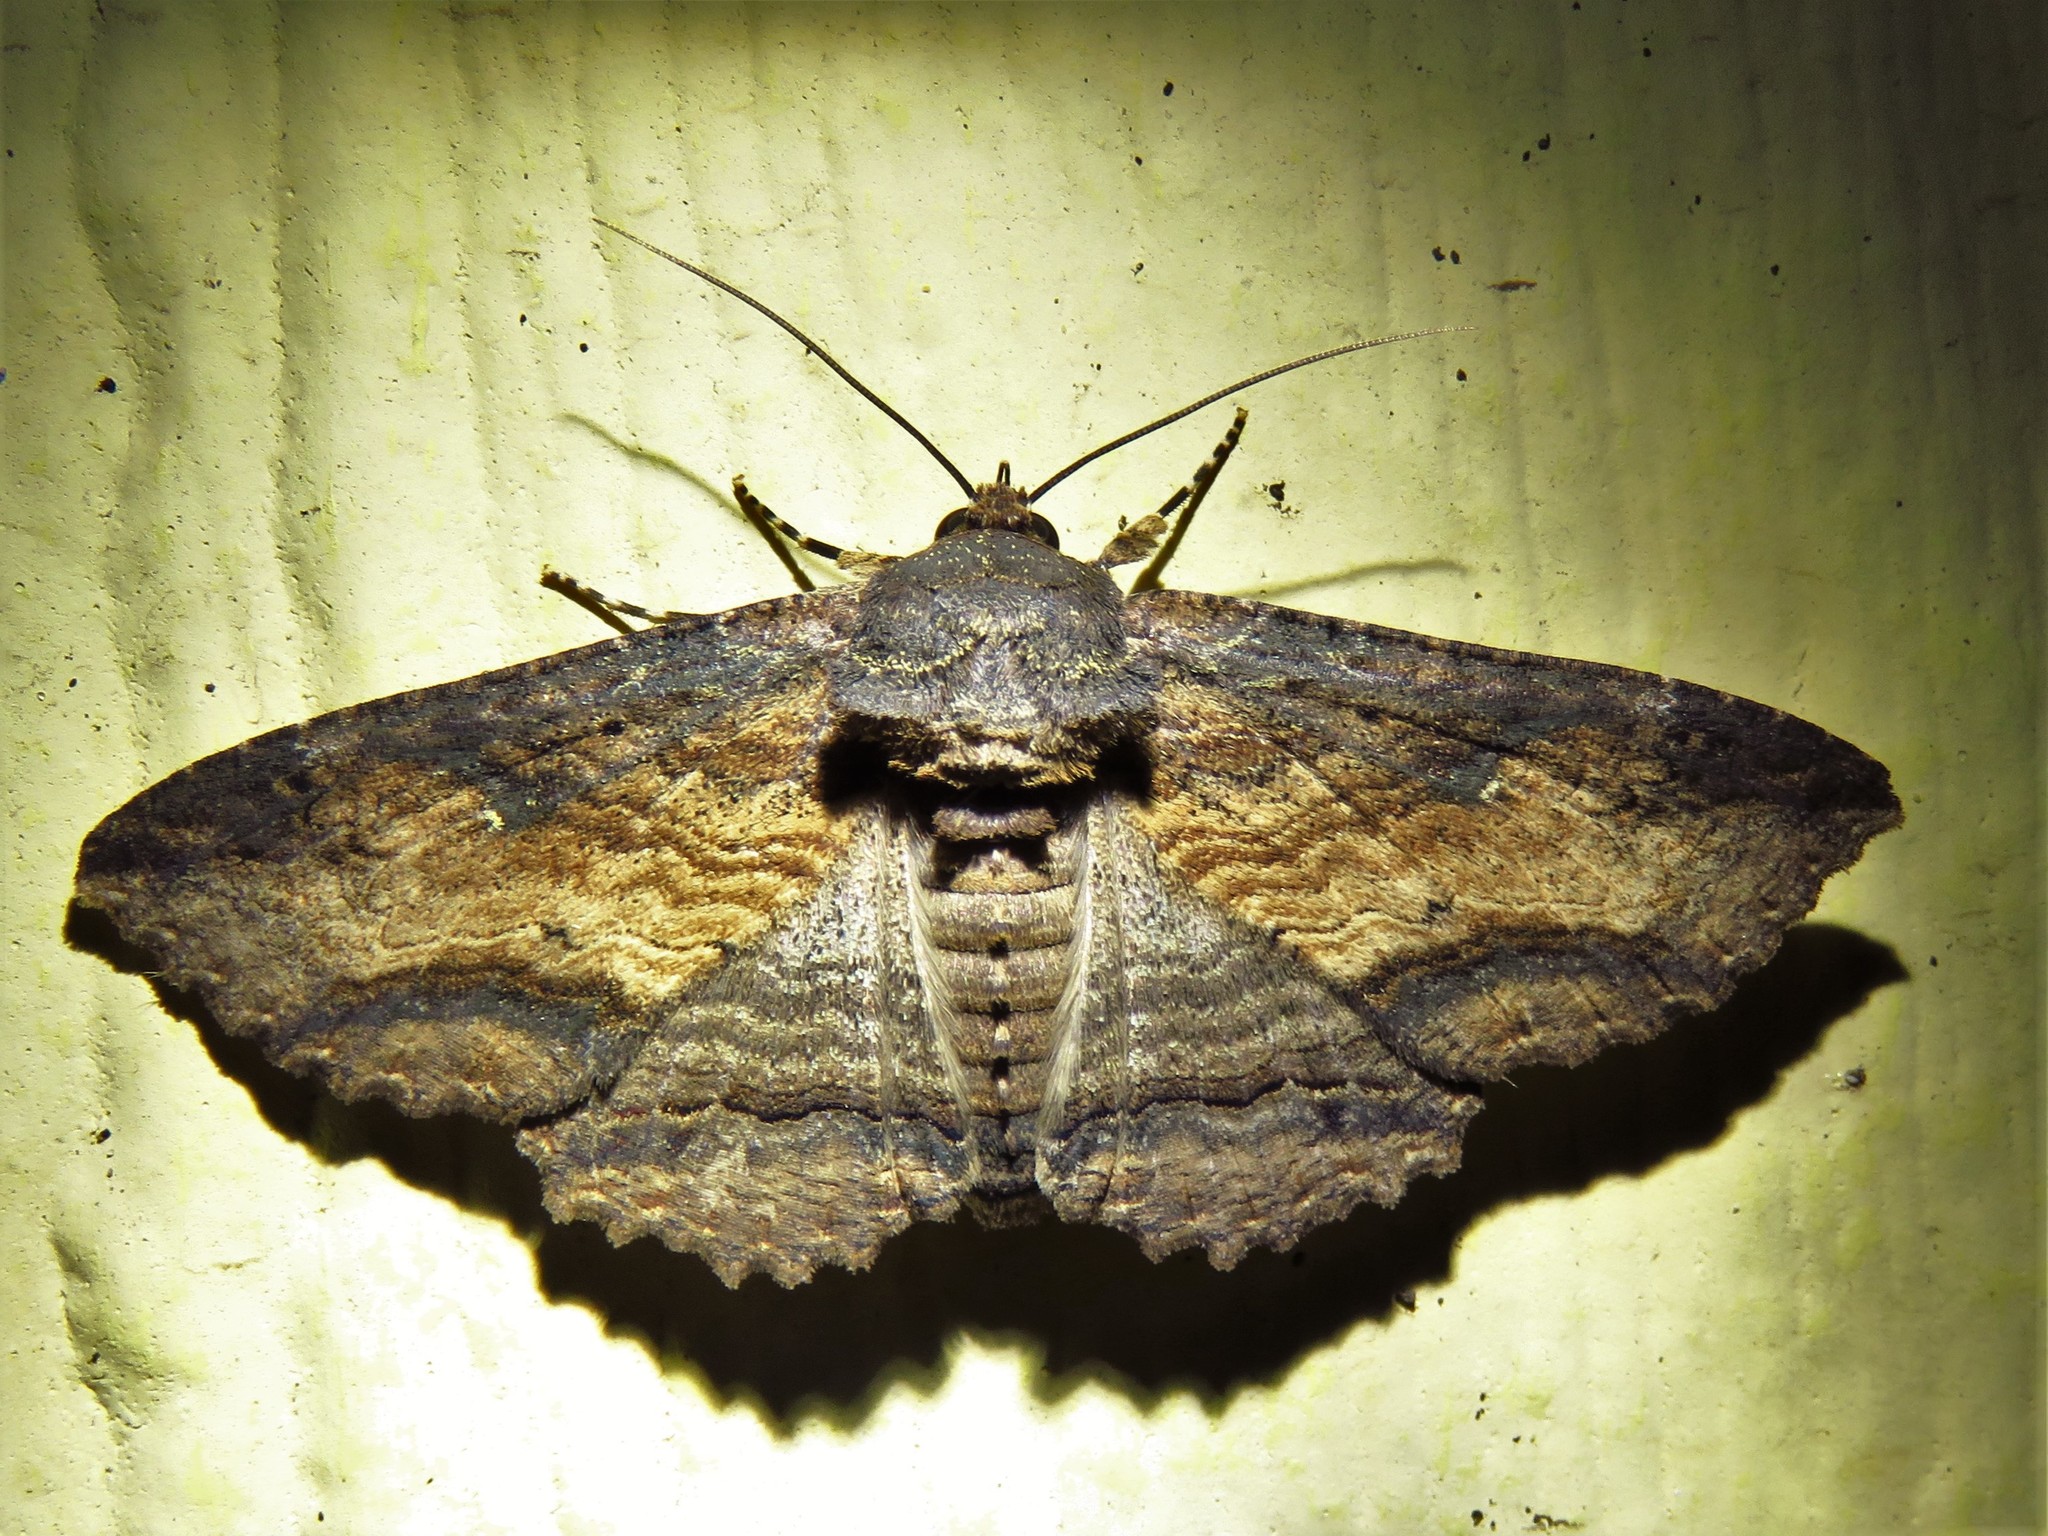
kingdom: Animalia
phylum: Arthropoda
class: Insecta
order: Lepidoptera
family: Erebidae
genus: Zale
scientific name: Zale lunata
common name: Lunate zale moth
